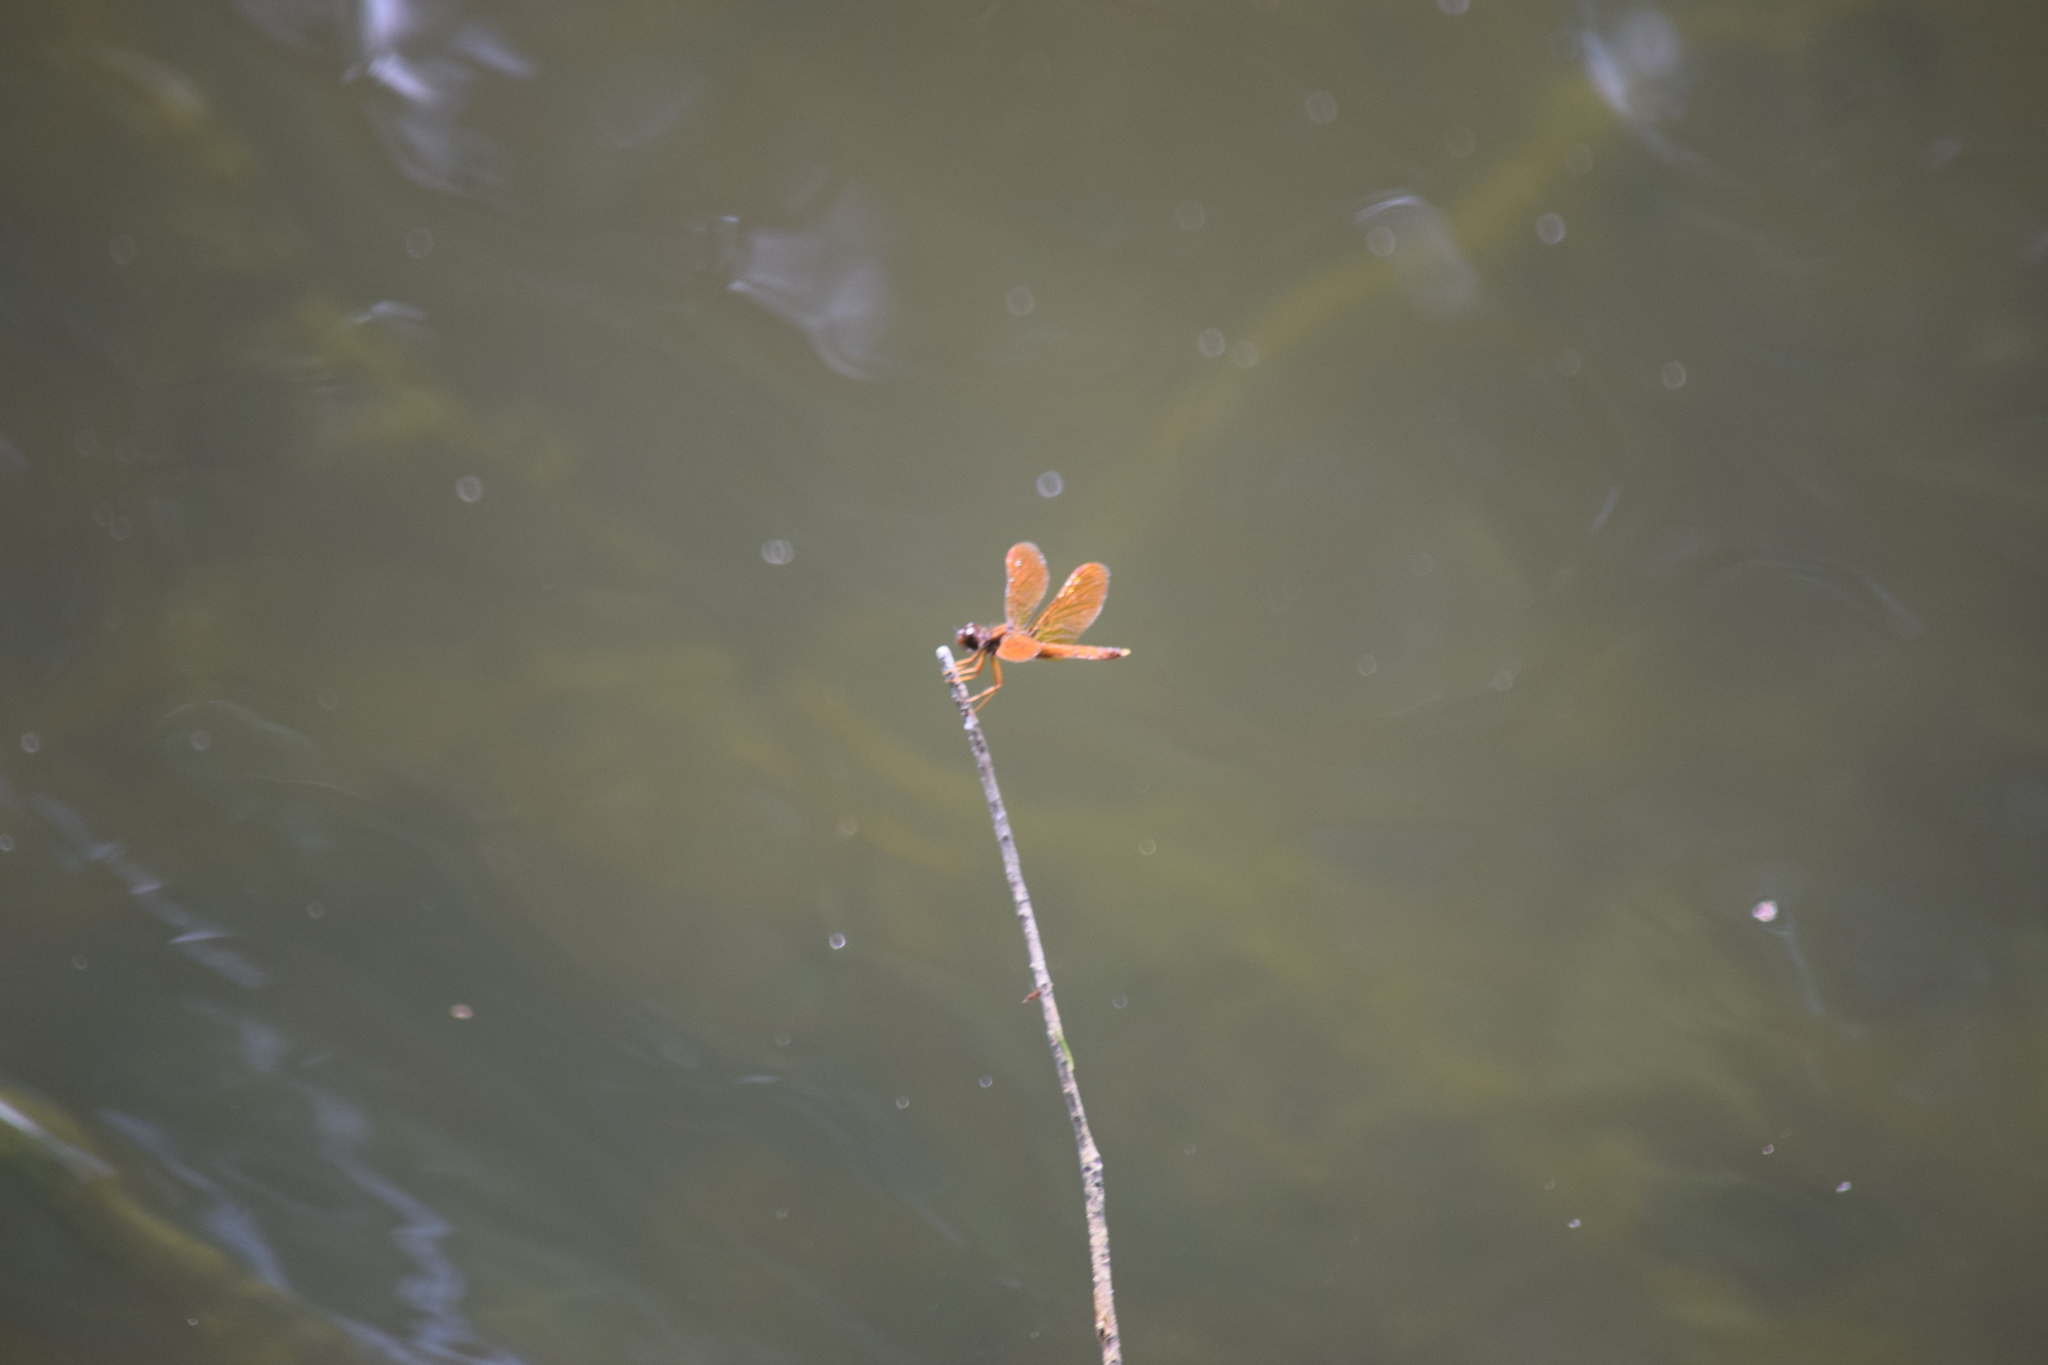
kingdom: Animalia
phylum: Arthropoda
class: Insecta
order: Odonata
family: Libellulidae
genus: Perithemis
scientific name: Perithemis tenera
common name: Eastern amberwing
